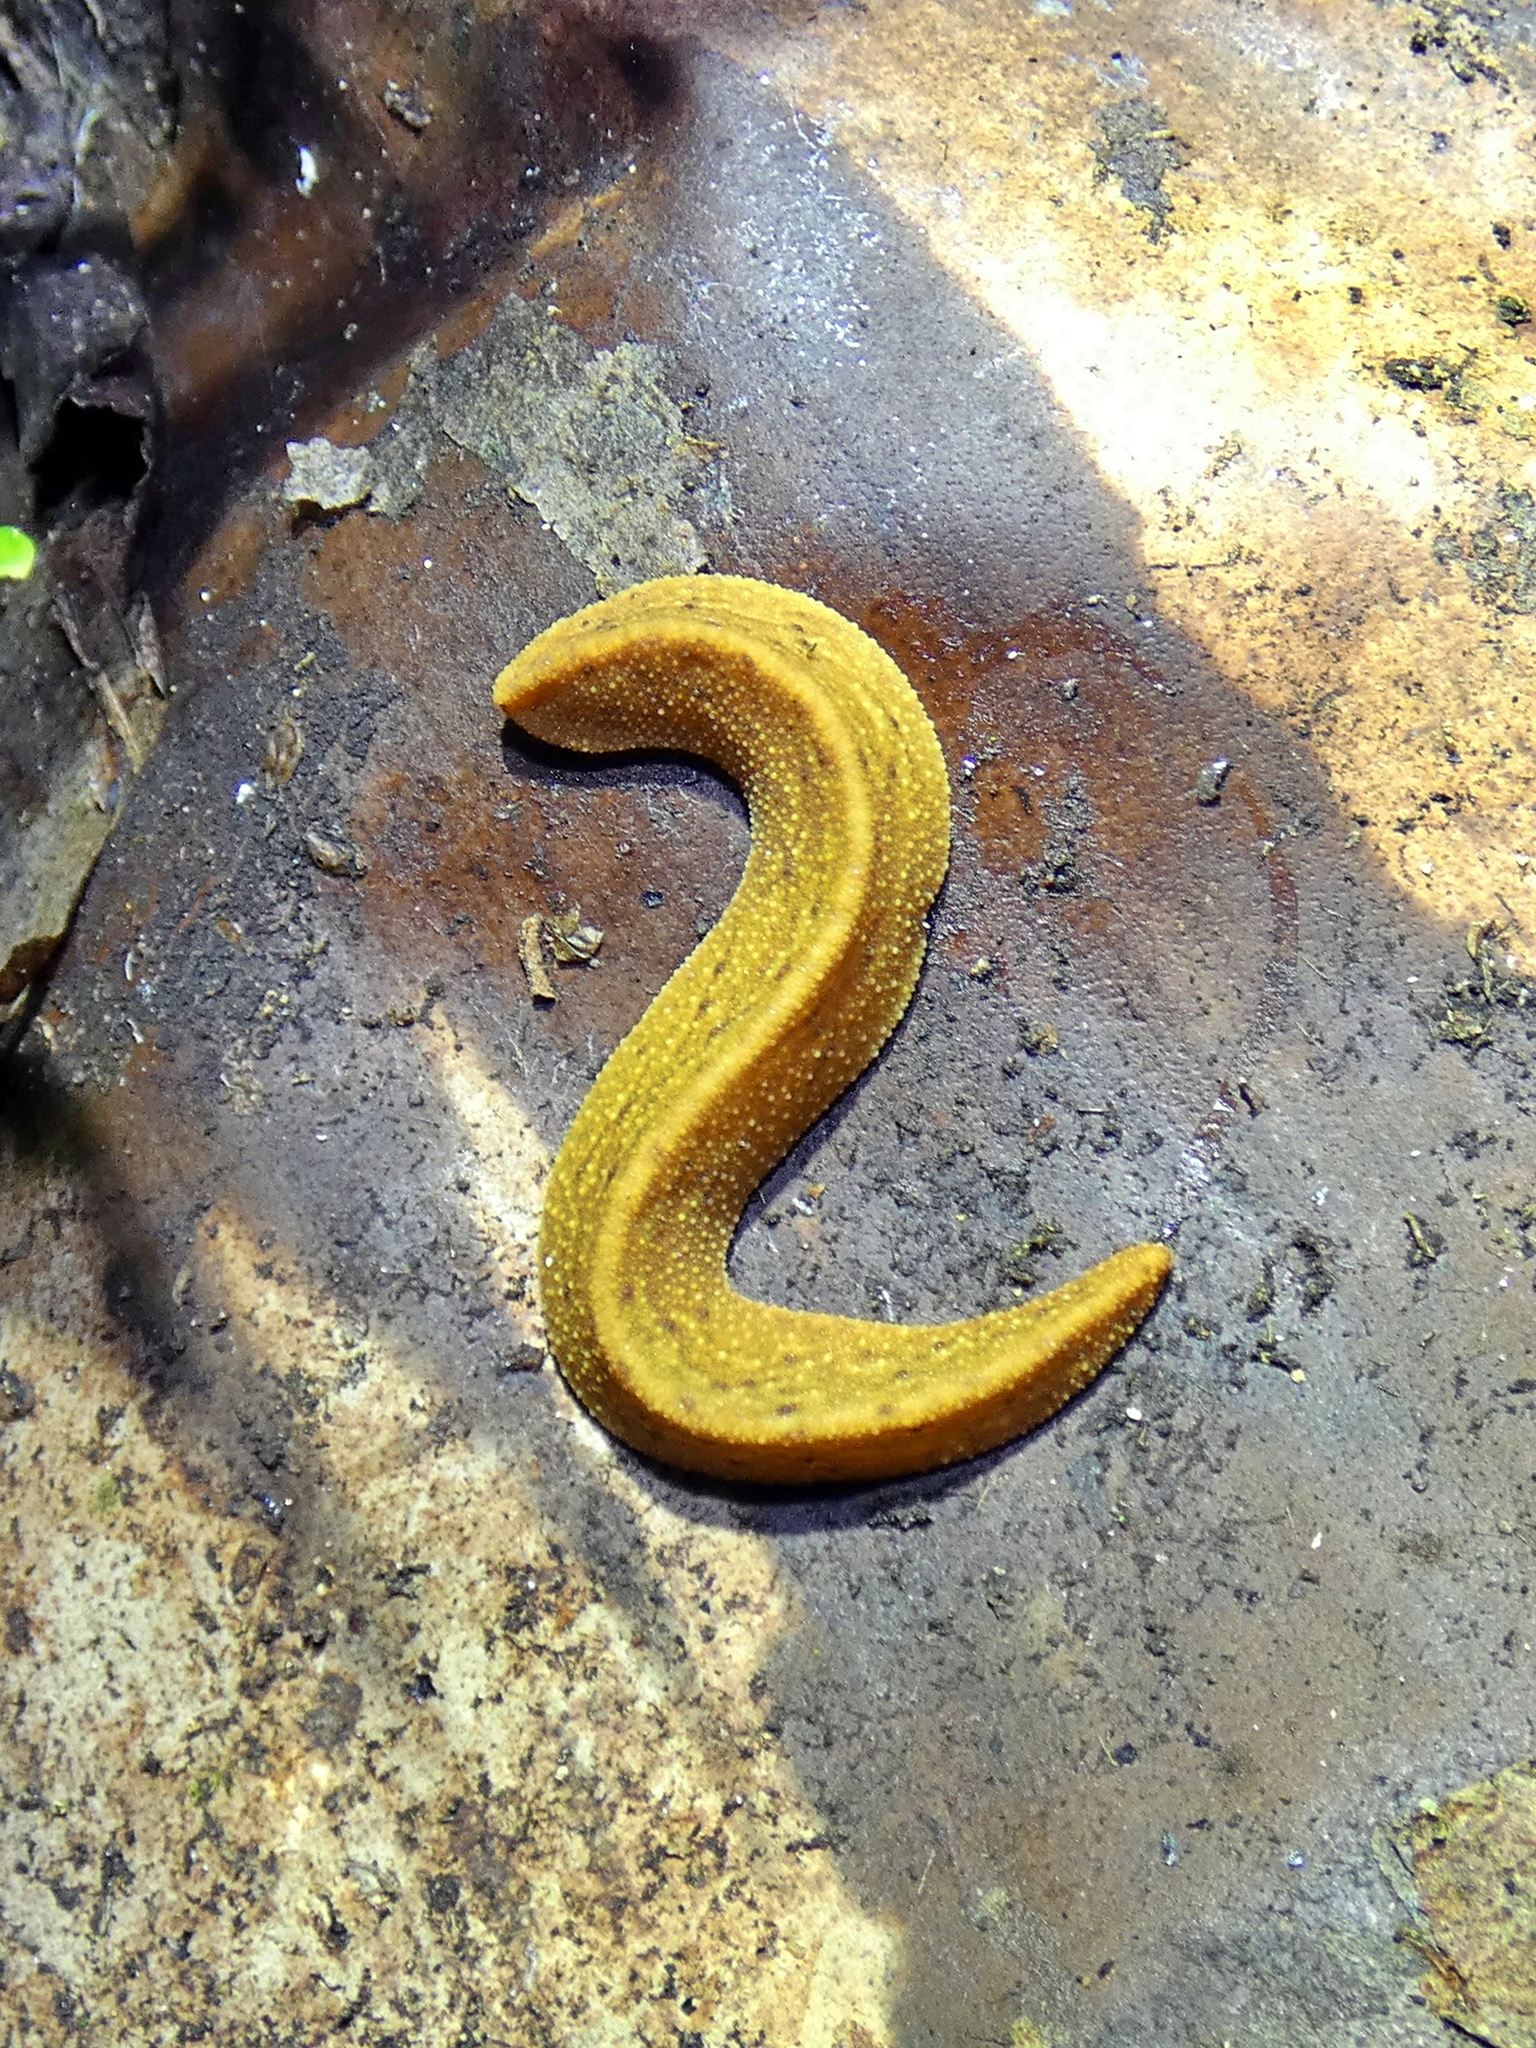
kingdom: Animalia
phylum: Mollusca
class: Gastropoda
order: Systellommatophora
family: Rathouisiidae
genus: Atopos
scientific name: Atopos australis
